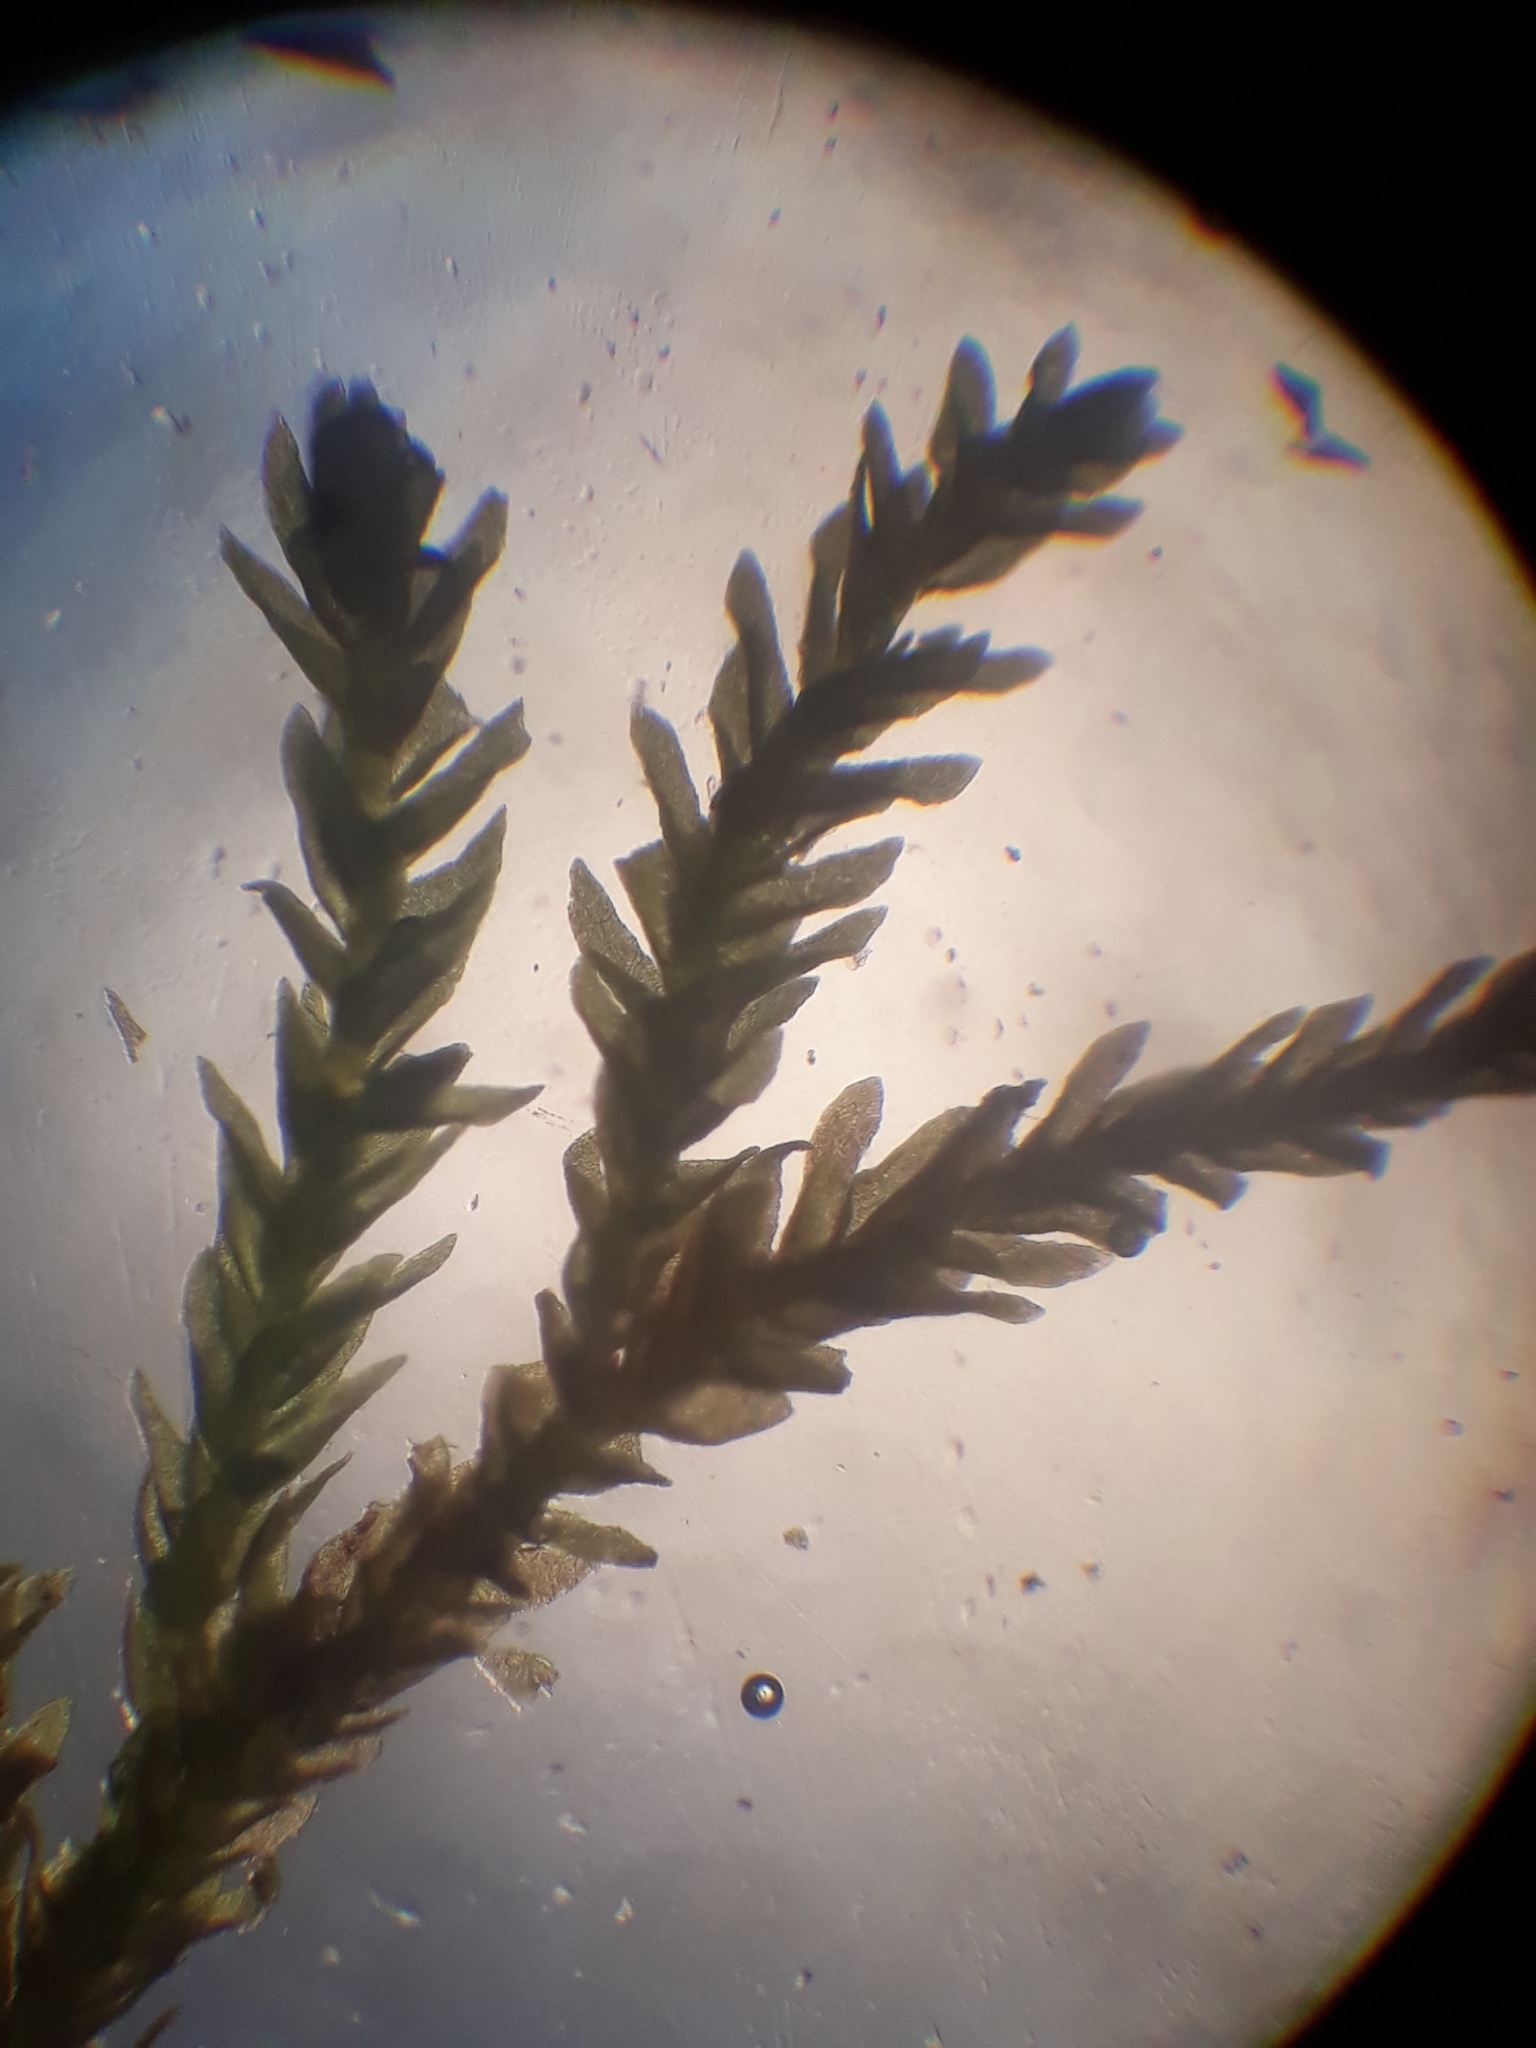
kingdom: Plantae
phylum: Bryophyta
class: Bryopsida
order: Hypnales
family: Anomodontaceae
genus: Haplohymenium
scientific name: Haplohymenium pseudotriste
